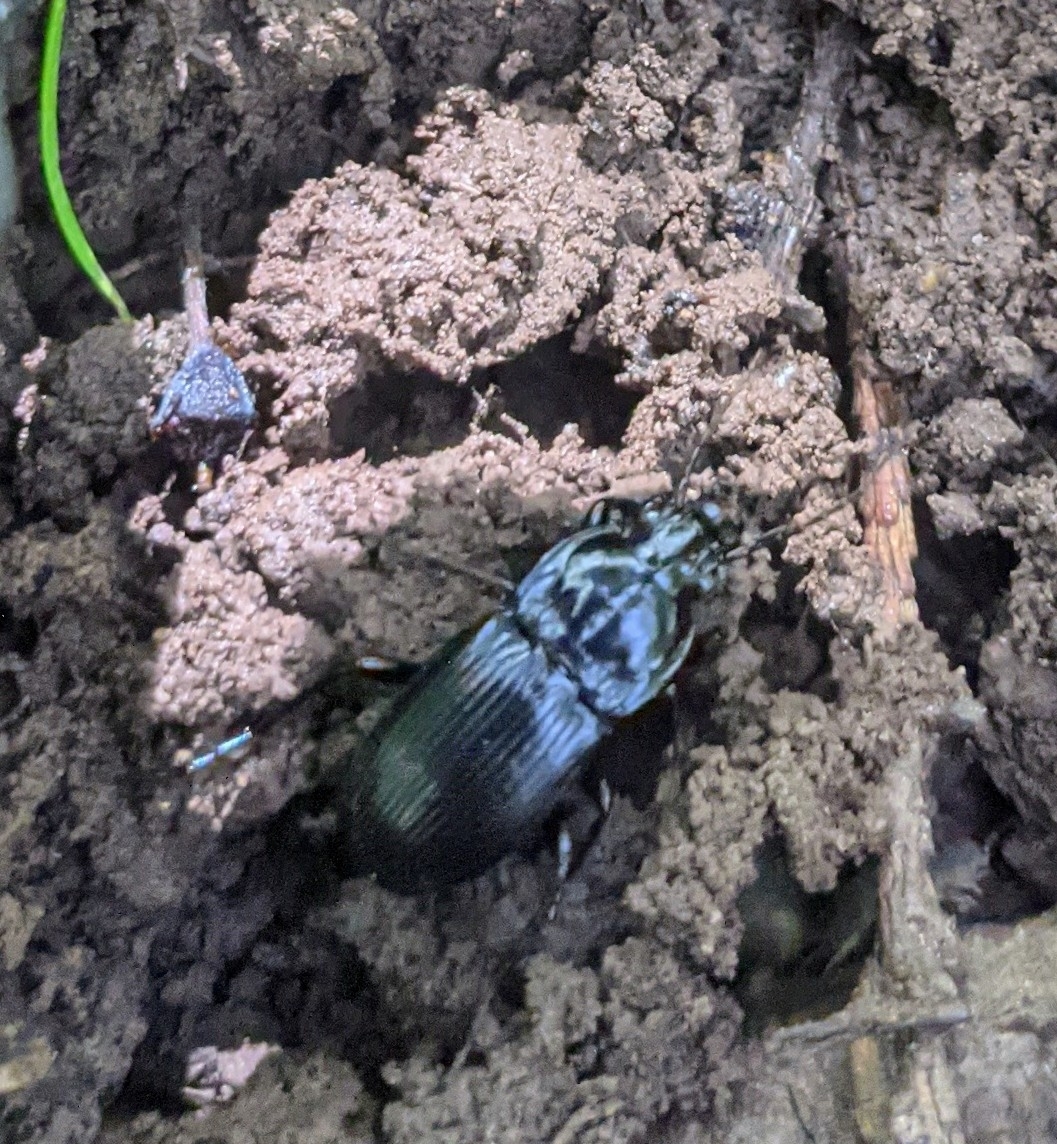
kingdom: Animalia
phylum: Arthropoda
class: Insecta
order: Coleoptera
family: Carabidae
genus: Abax
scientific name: Abax parallelepipedus
